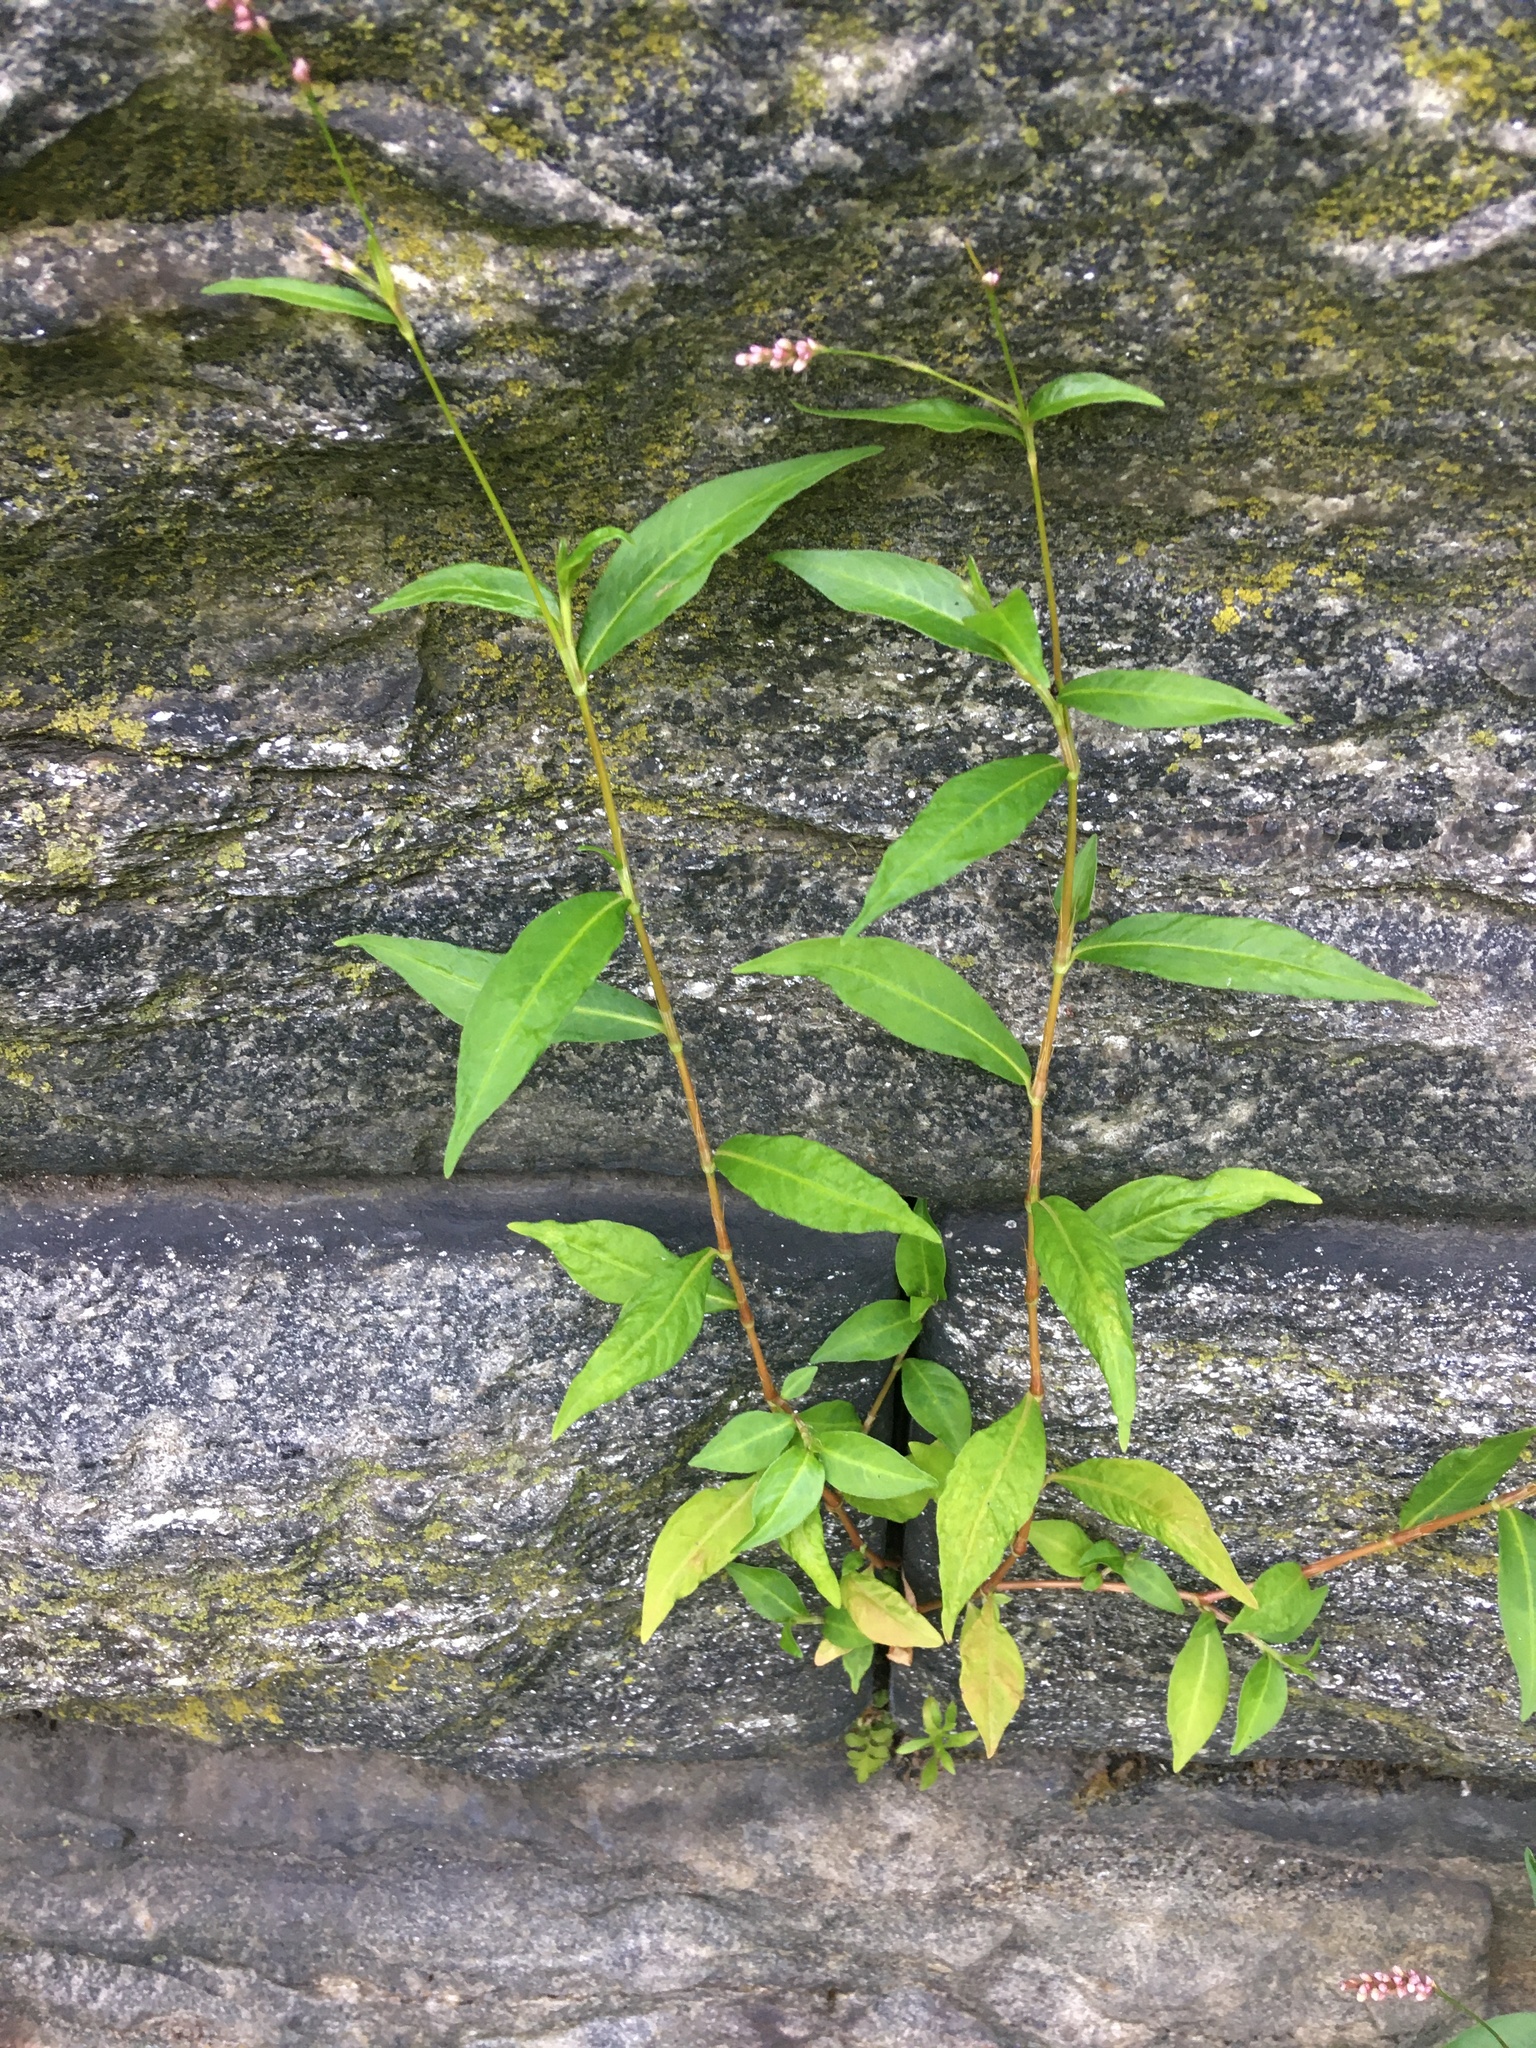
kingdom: Plantae
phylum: Tracheophyta
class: Magnoliopsida
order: Caryophyllales
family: Polygonaceae
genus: Persicaria
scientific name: Persicaria longiseta
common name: Bristly lady's-thumb
